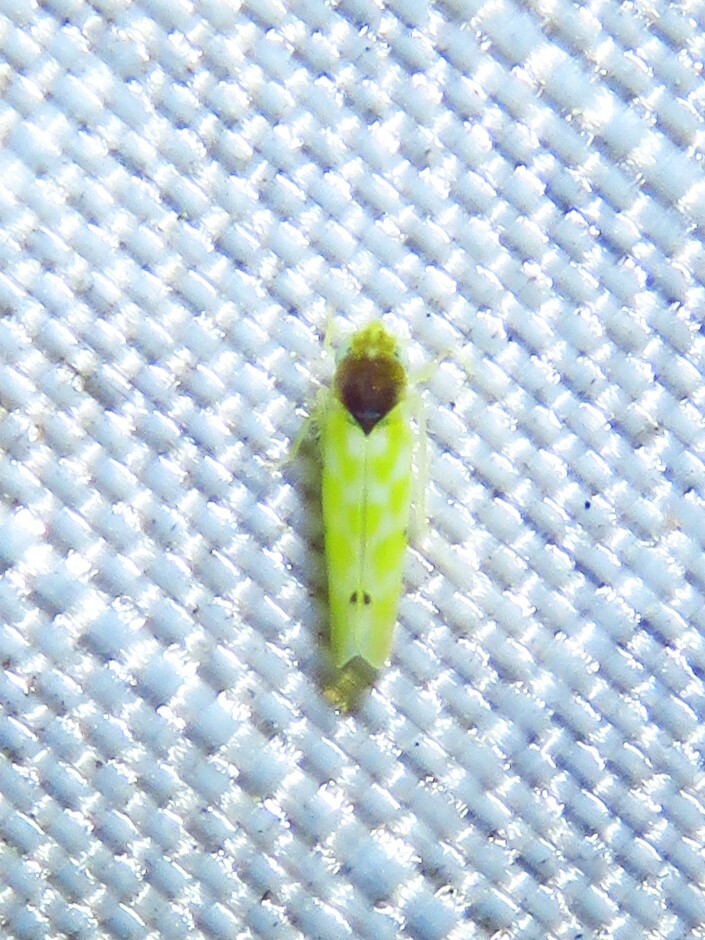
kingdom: Animalia
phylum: Arthropoda
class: Insecta
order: Hemiptera
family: Cicadellidae
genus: Eratoneura
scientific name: Eratoneura ardens
